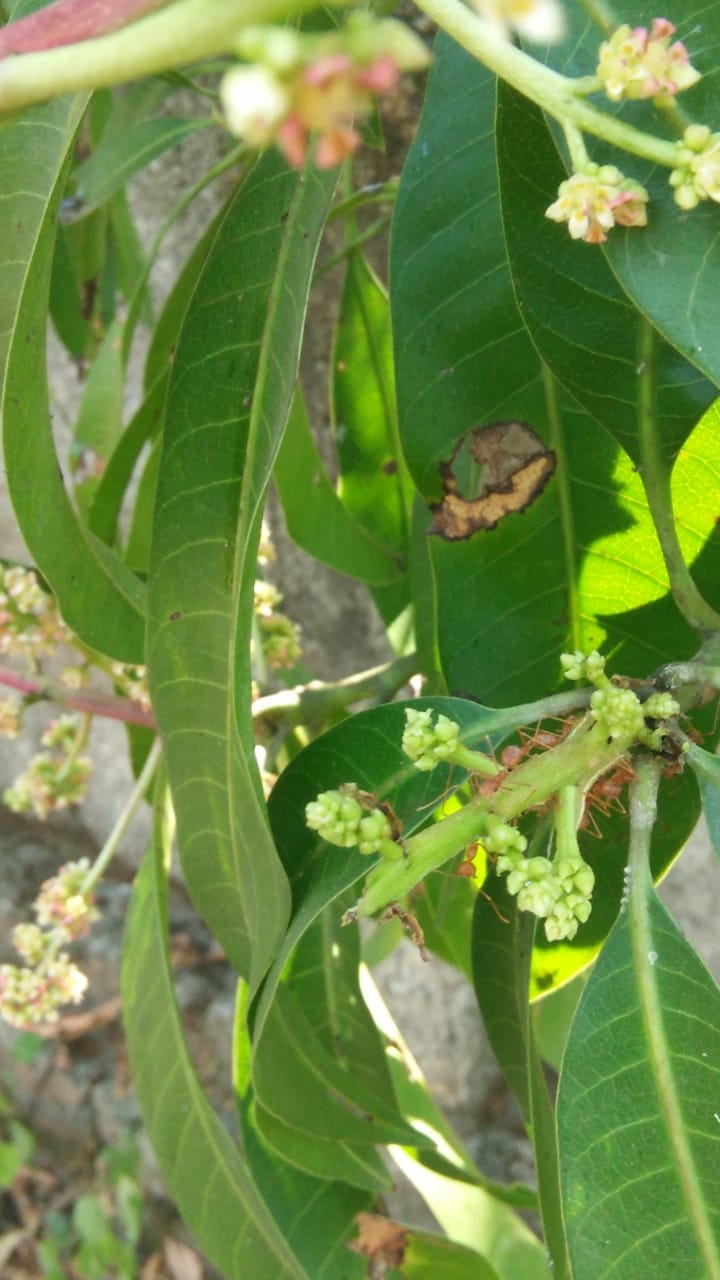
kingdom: Plantae
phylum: Tracheophyta
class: Magnoliopsida
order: Sapindales
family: Anacardiaceae
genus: Mangifera
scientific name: Mangifera indica
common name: Mango
